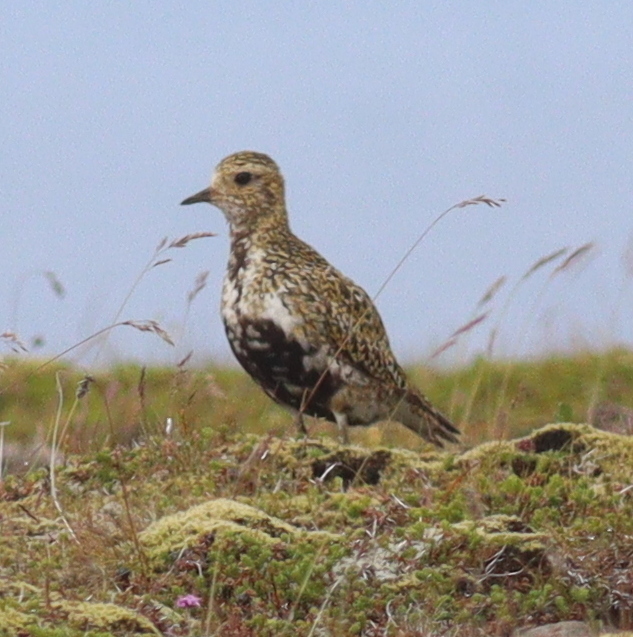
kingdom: Animalia
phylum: Chordata
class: Aves
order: Charadriiformes
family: Charadriidae
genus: Pluvialis
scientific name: Pluvialis apricaria
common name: European golden plover
